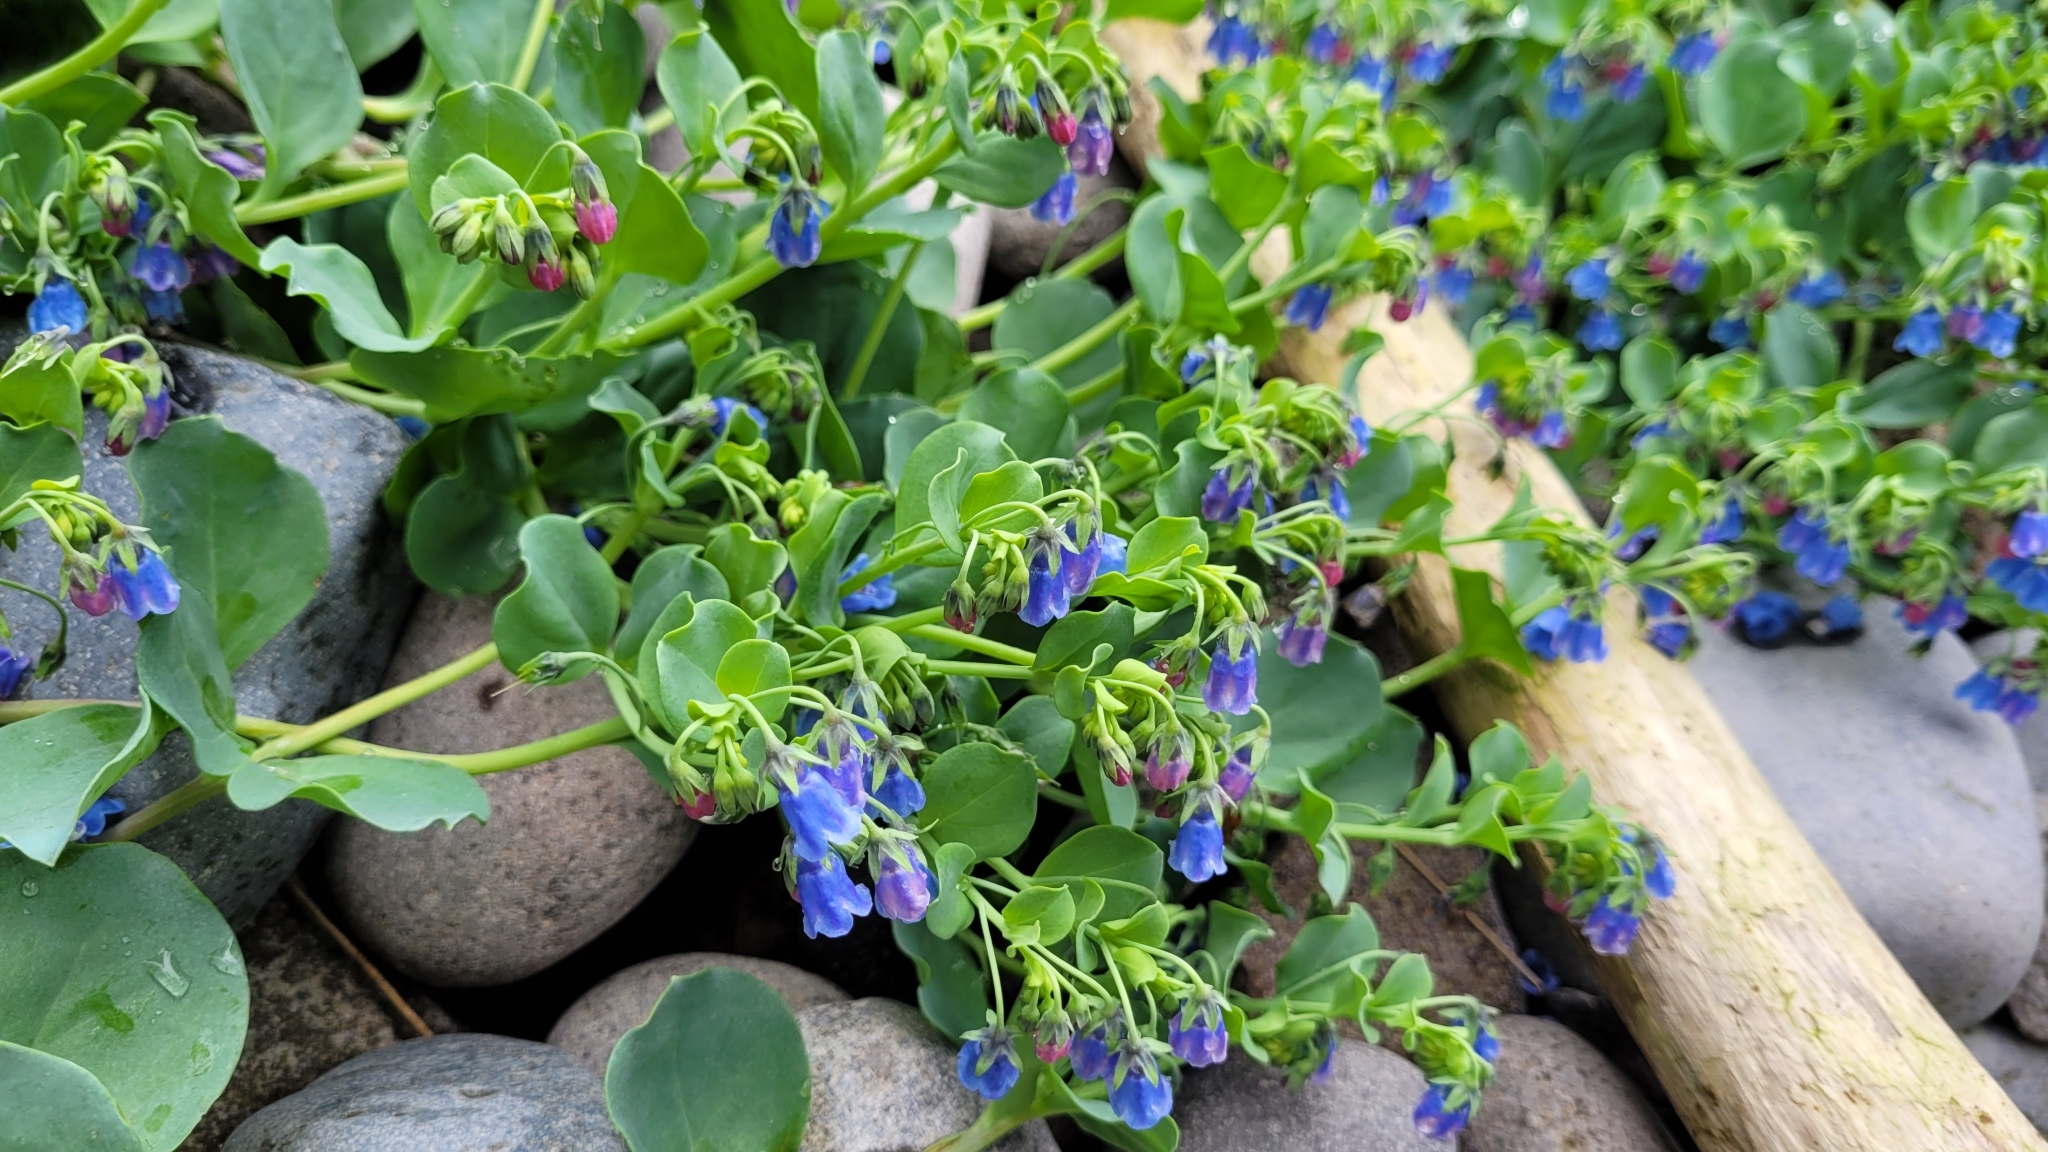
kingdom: Plantae
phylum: Tracheophyta
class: Magnoliopsida
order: Boraginales
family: Boraginaceae
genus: Mertensia
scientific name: Mertensia maritima
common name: Oysterplant
